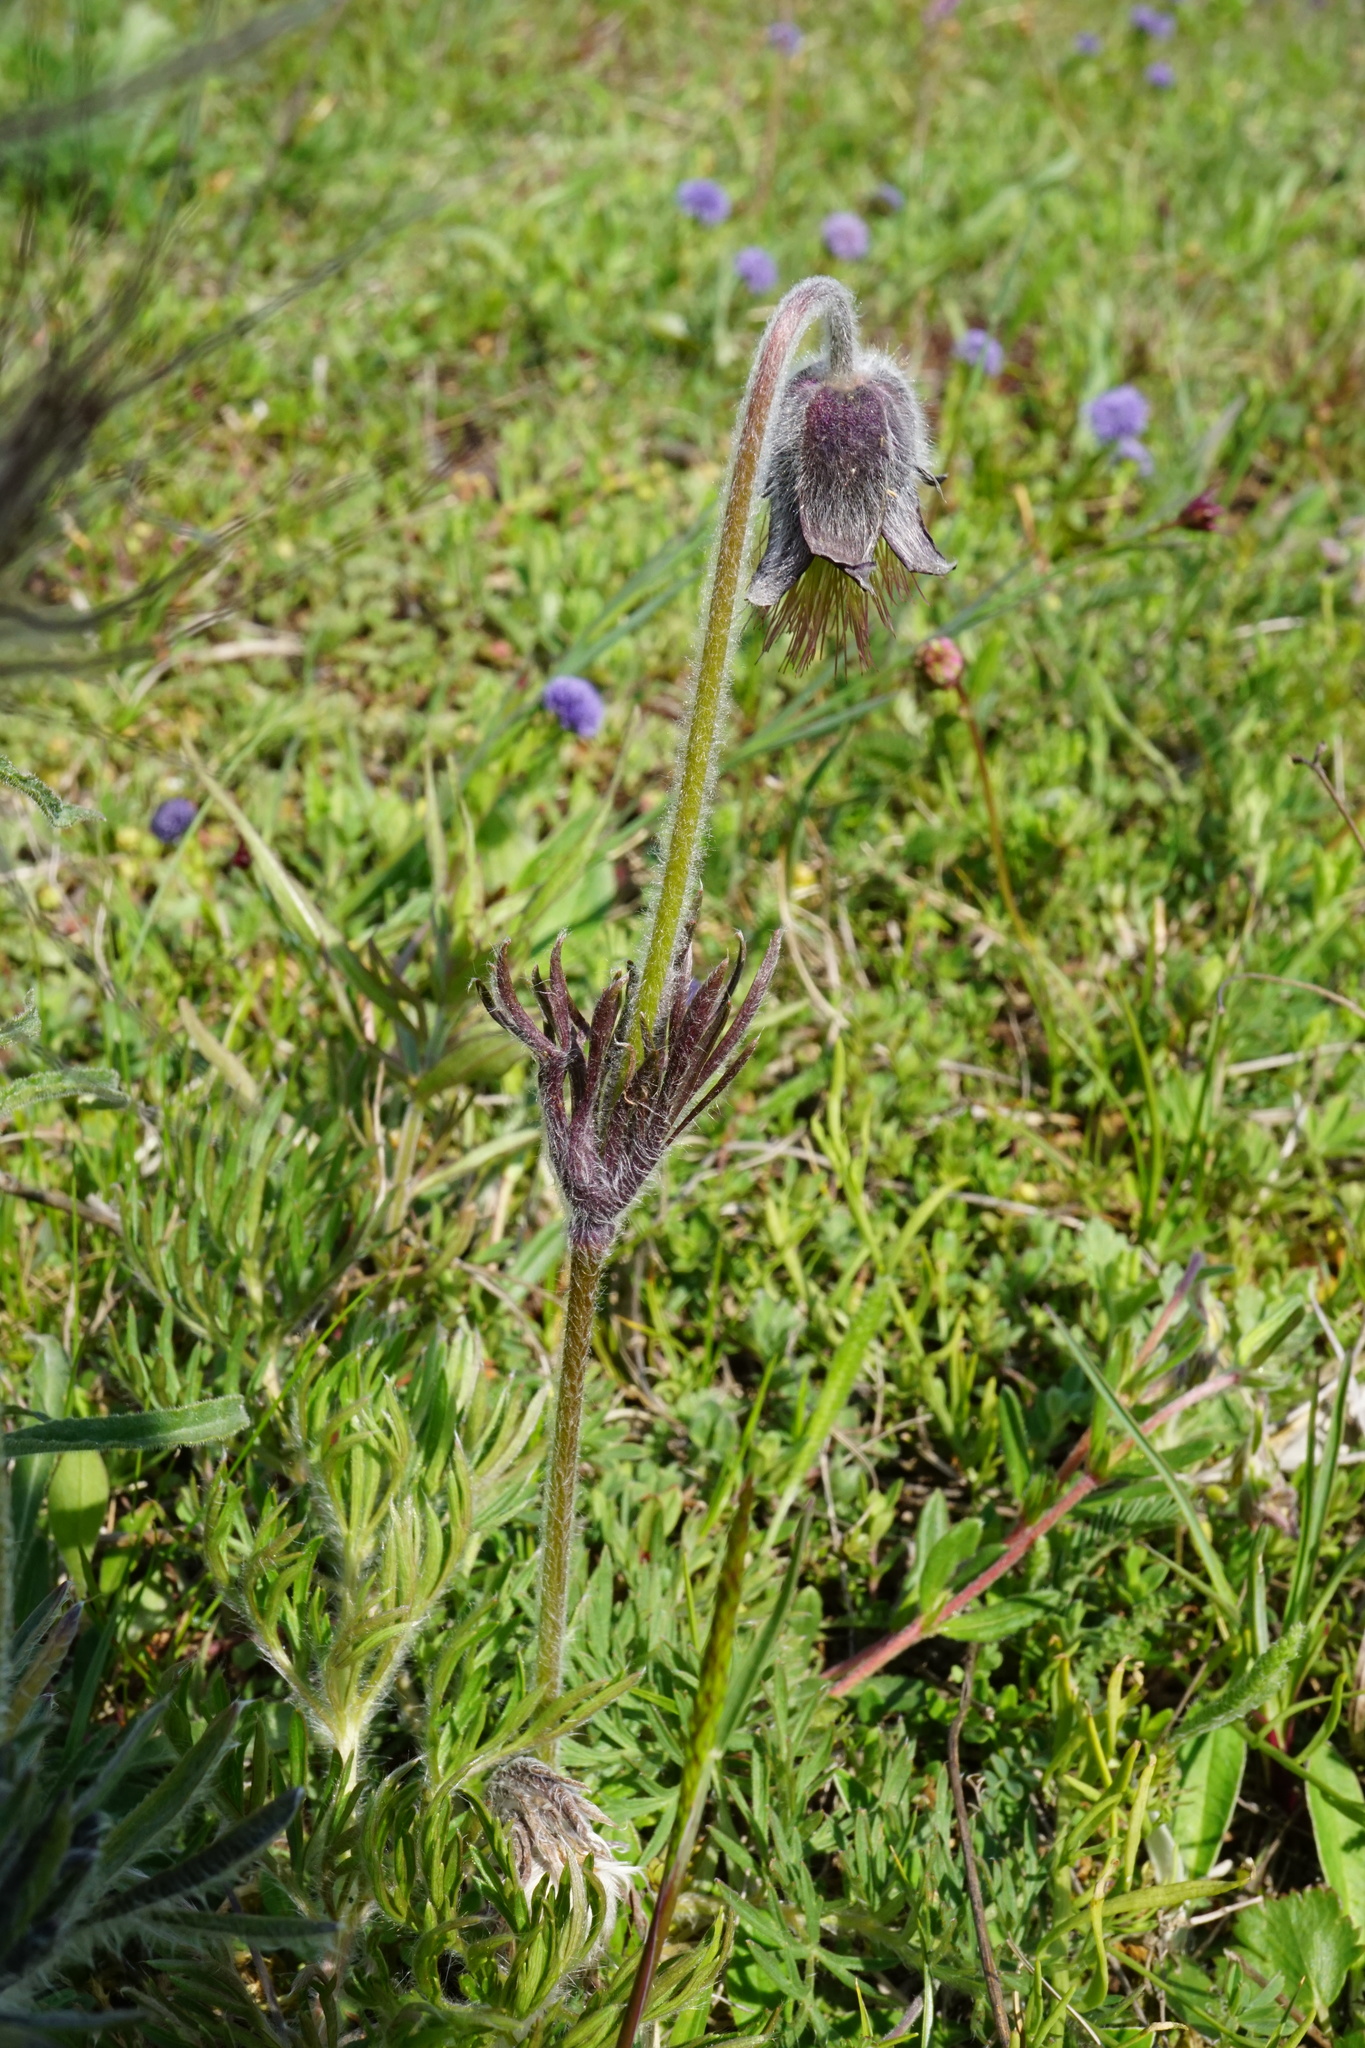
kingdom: Plantae
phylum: Tracheophyta
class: Magnoliopsida
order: Ranunculales
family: Ranunculaceae
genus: Pulsatilla
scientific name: Pulsatilla pratensis
